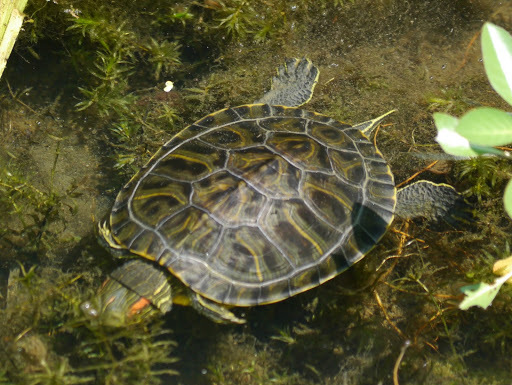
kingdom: Animalia
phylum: Chordata
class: Testudines
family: Emydidae
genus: Trachemys
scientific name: Trachemys scripta
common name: Slider
